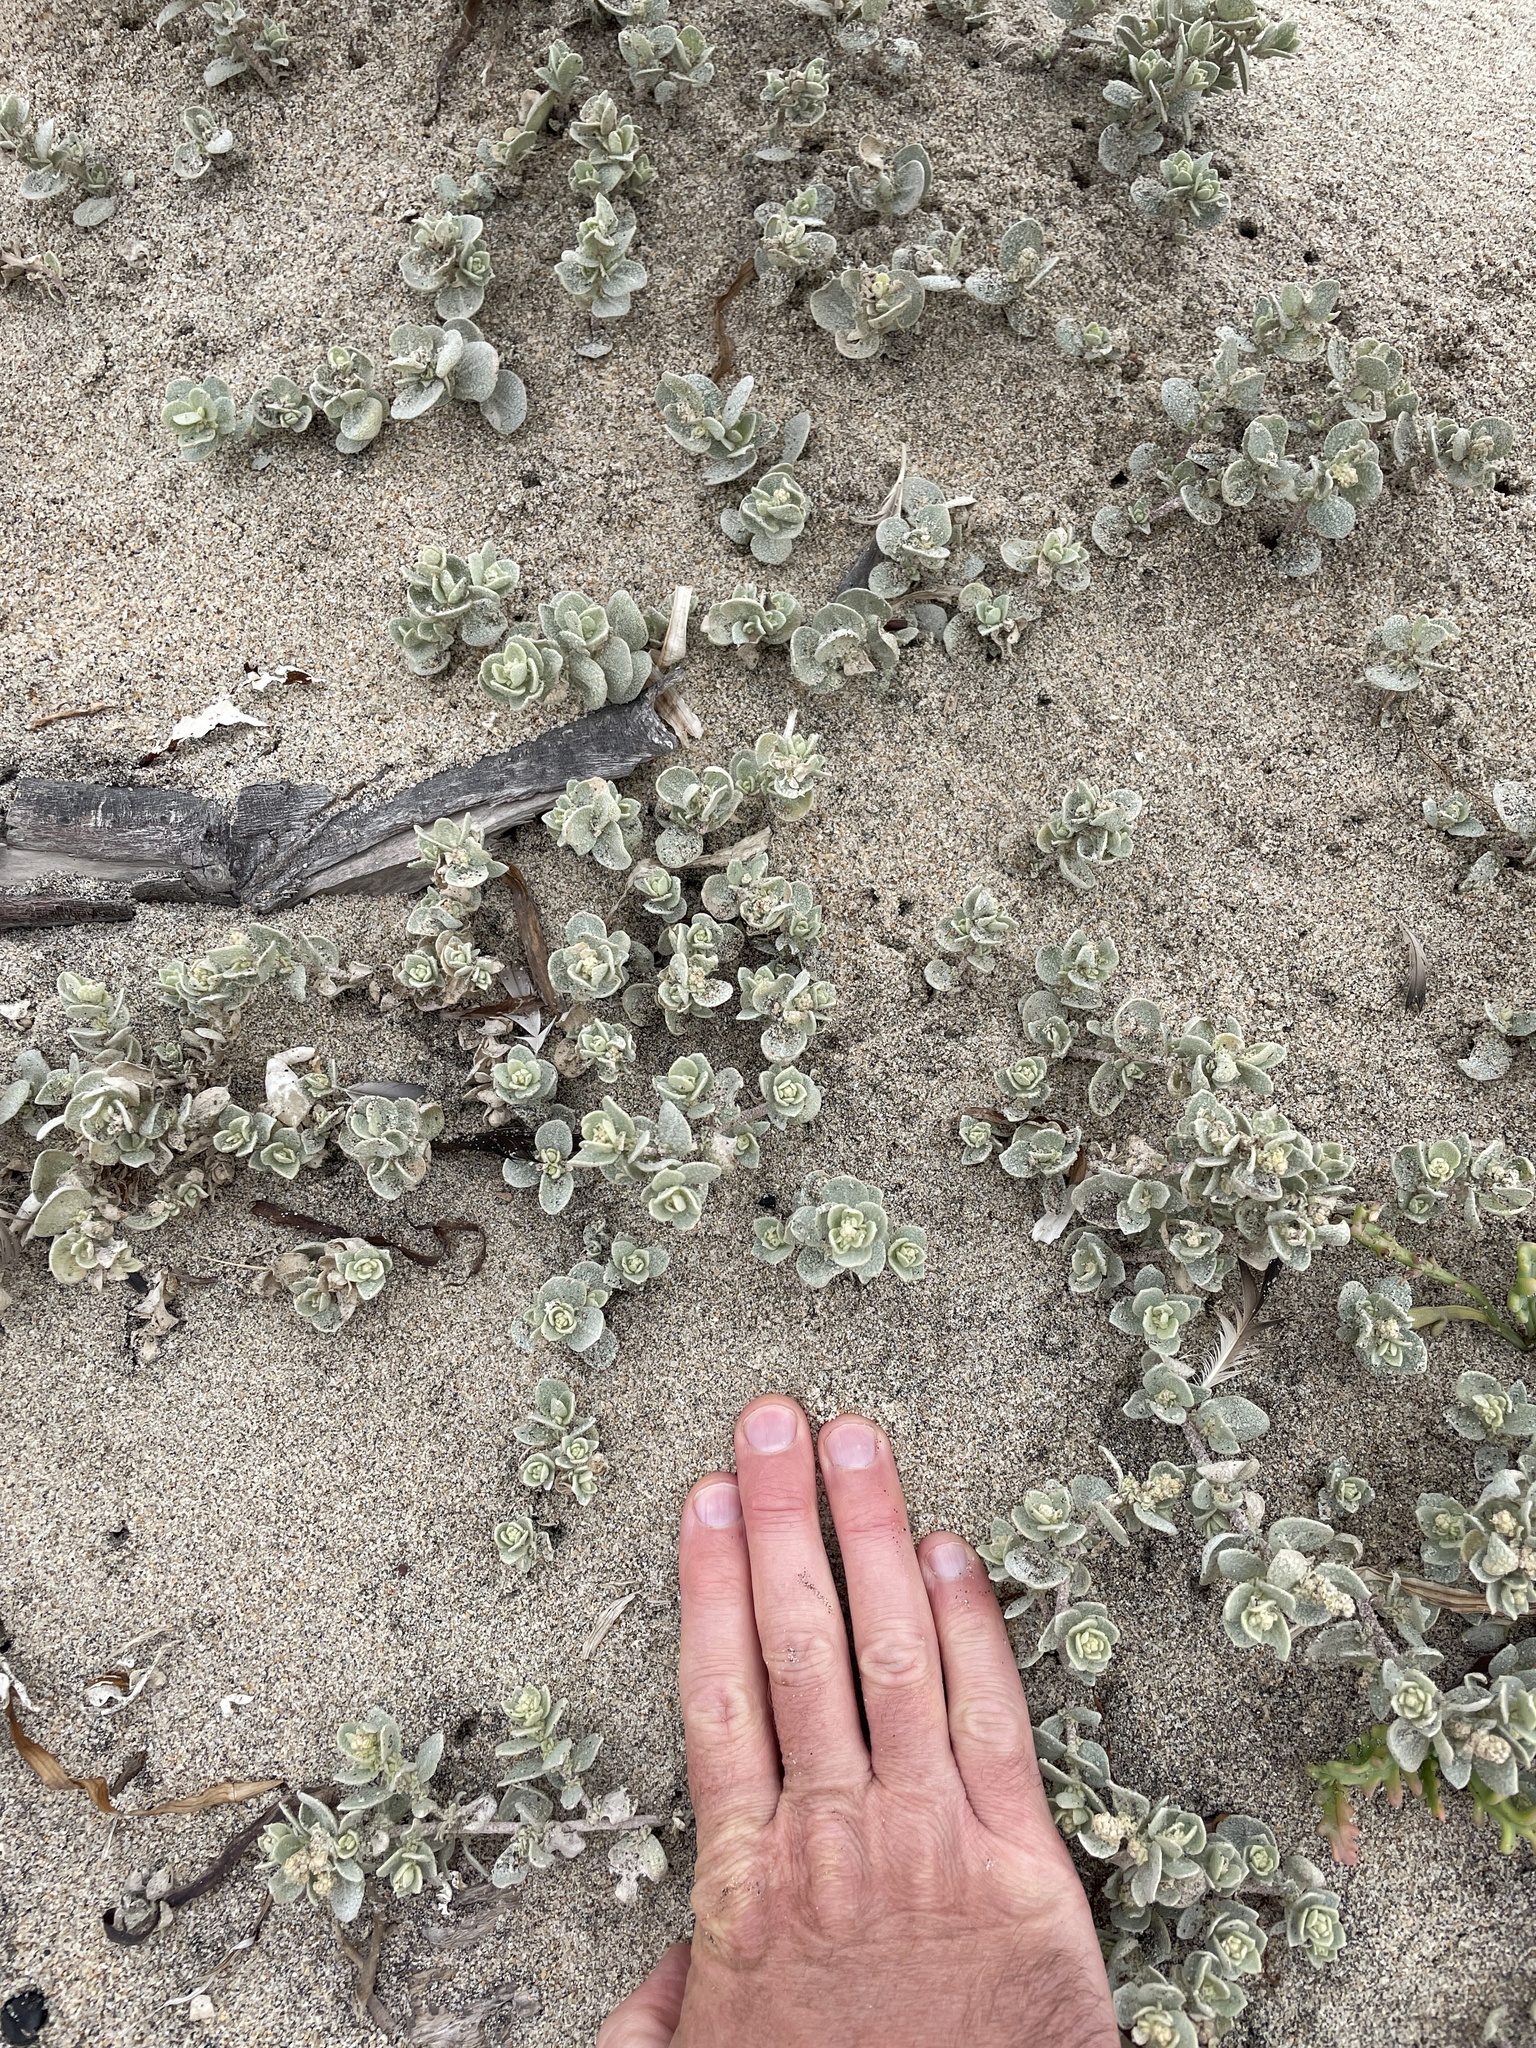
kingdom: Plantae
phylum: Tracheophyta
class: Magnoliopsida
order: Caryophyllales
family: Amaranthaceae
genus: Atriplex
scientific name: Atriplex leucophylla
